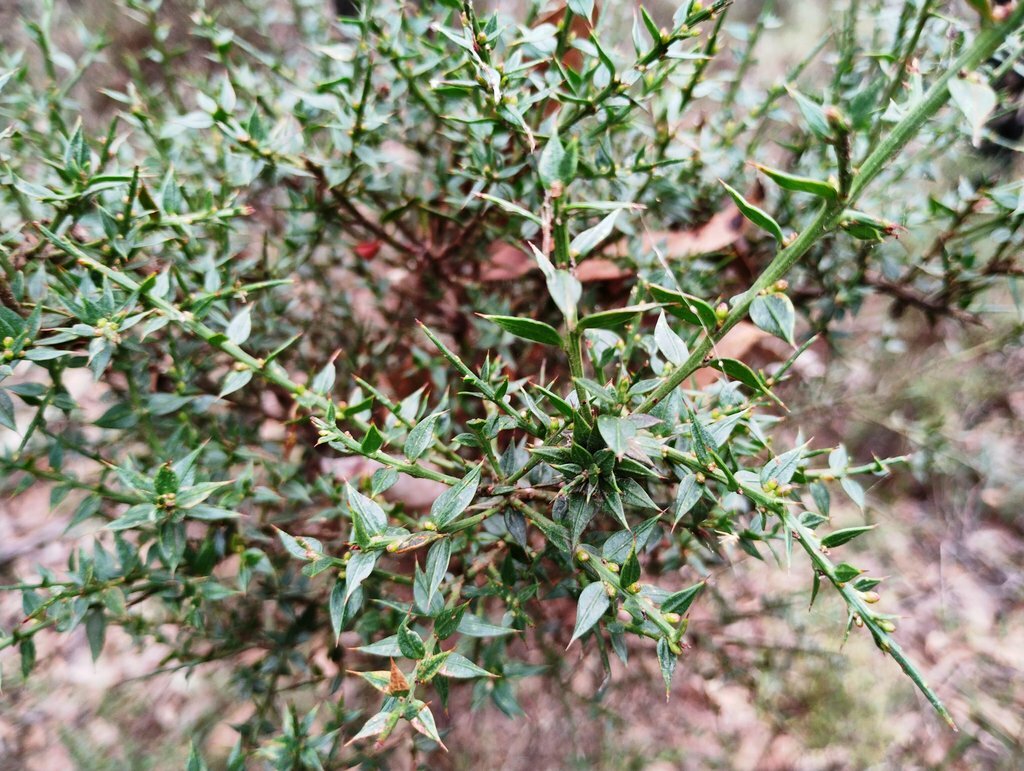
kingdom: Plantae
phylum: Tracheophyta
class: Magnoliopsida
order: Fabales
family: Fabaceae
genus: Daviesia
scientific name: Daviesia ulicifolia
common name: Gorse bitter-pea
